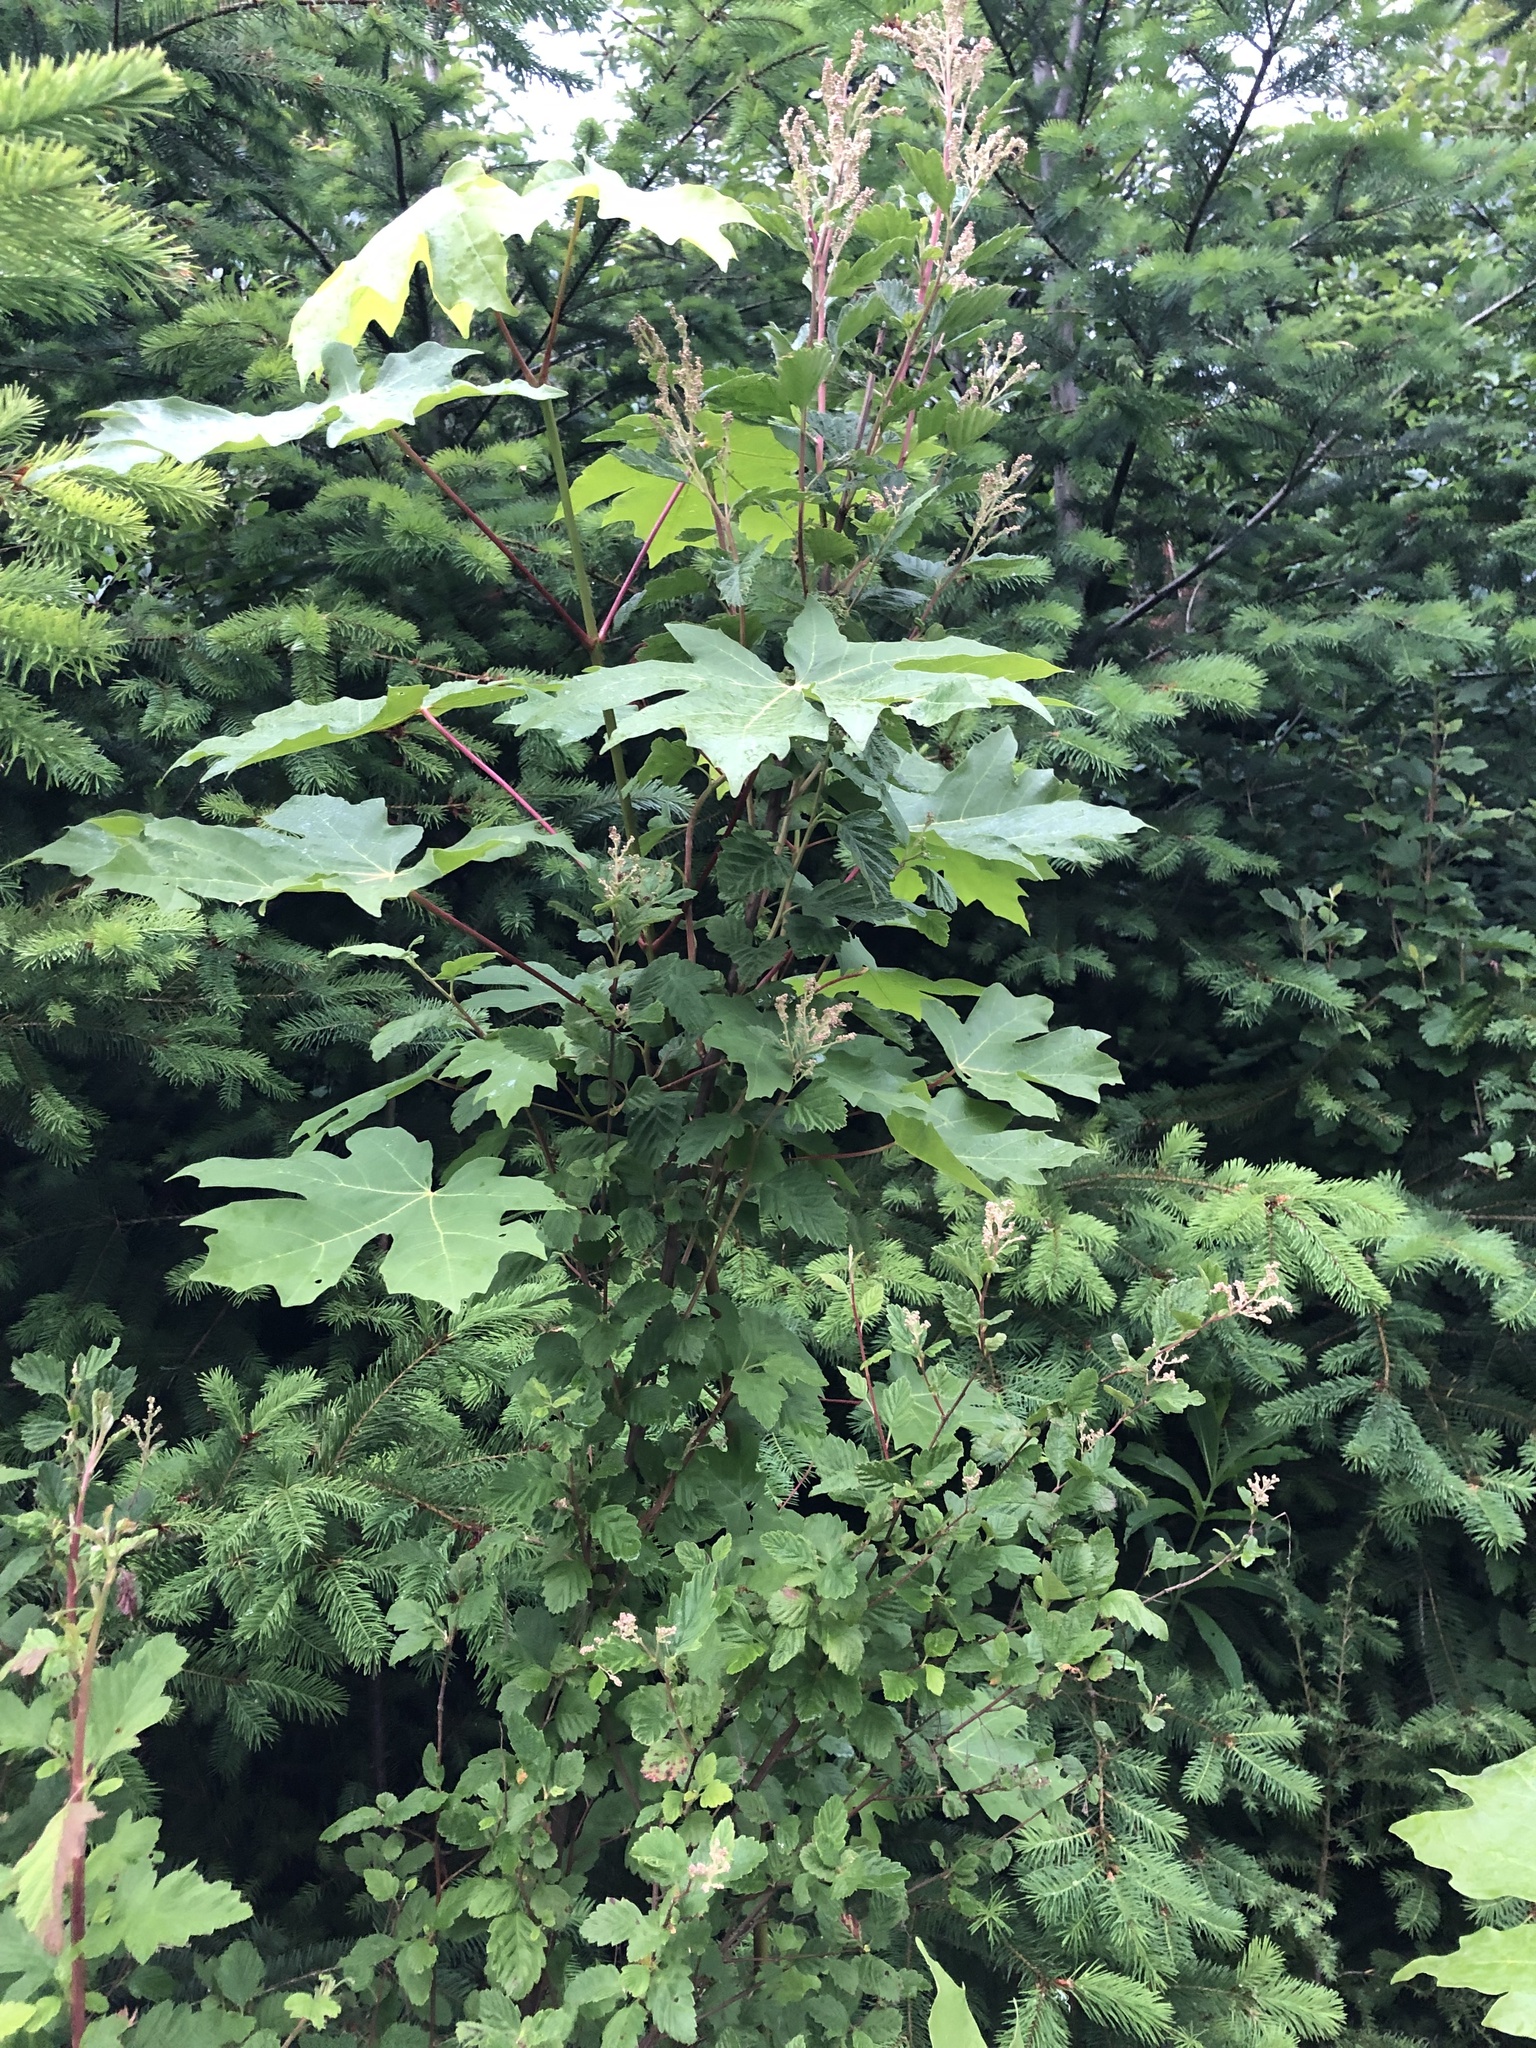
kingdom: Plantae
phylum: Tracheophyta
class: Magnoliopsida
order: Sapindales
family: Sapindaceae
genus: Acer
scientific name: Acer macrophyllum
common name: Oregon maple
